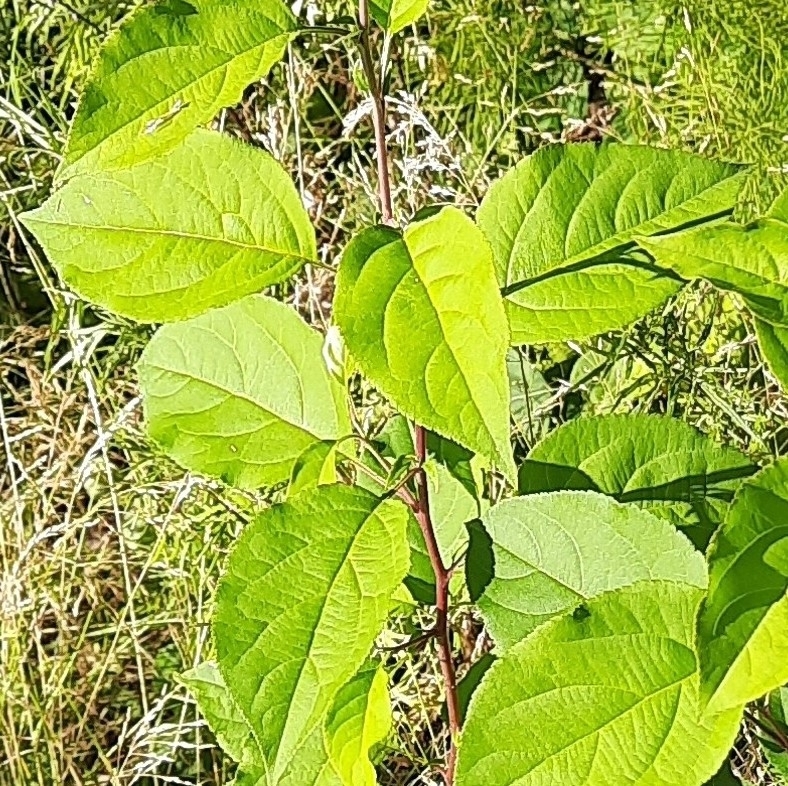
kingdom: Plantae
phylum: Tracheophyta
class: Magnoliopsida
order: Rosales
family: Rosaceae
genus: Malus
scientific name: Malus baccata
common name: Siberian crab
